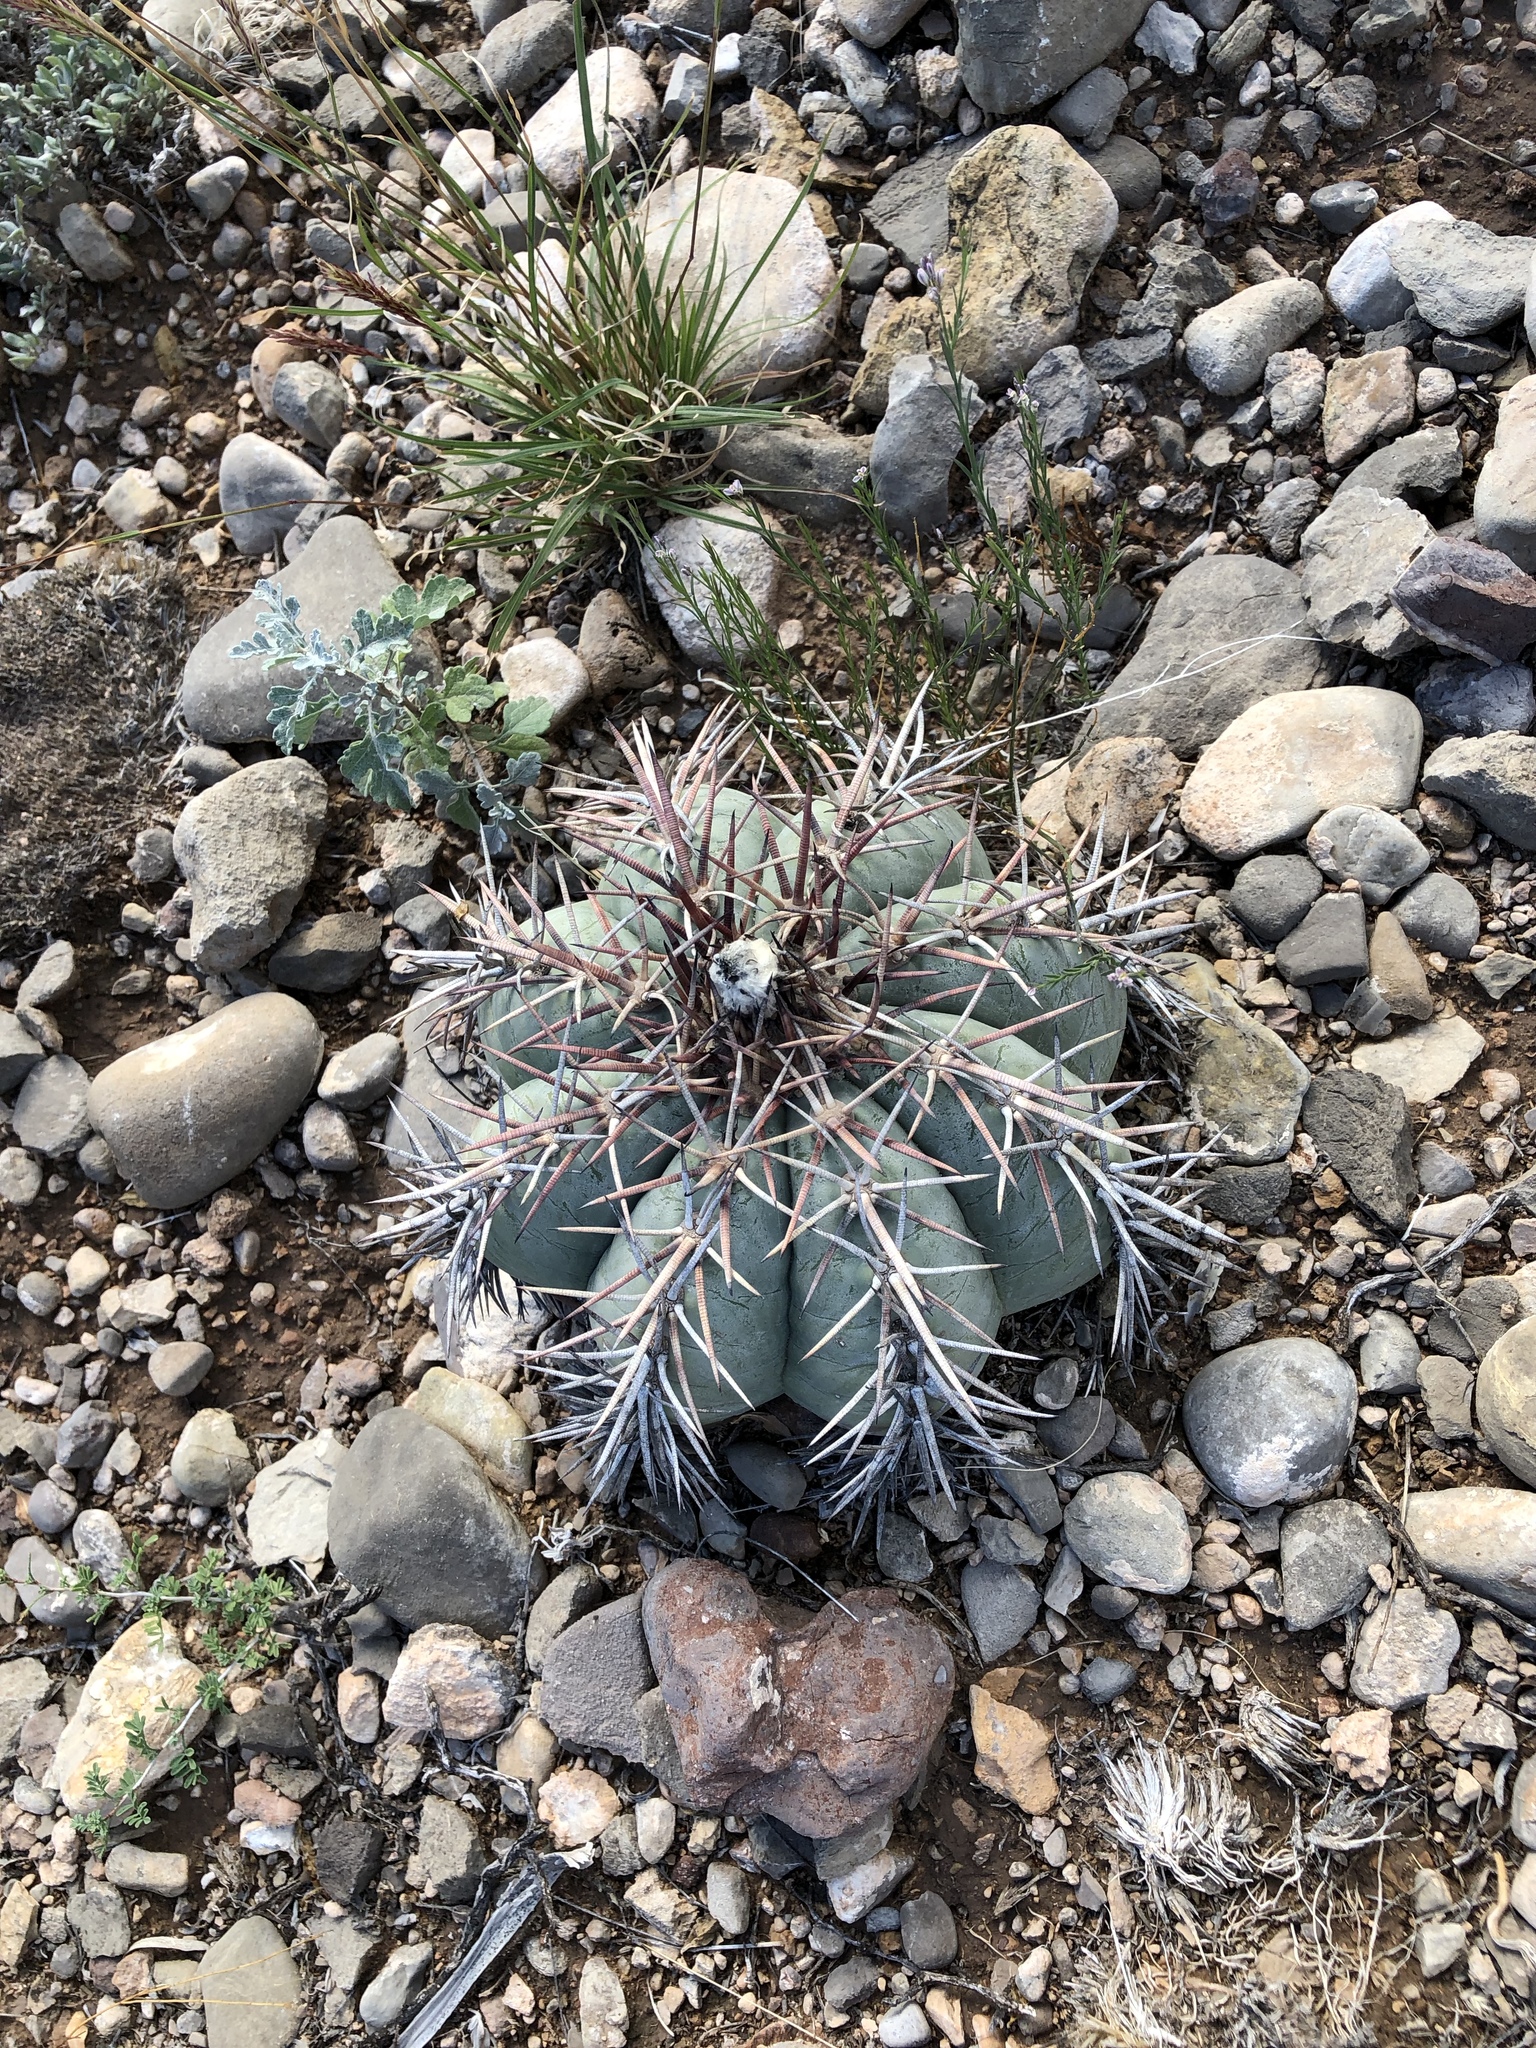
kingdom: Plantae
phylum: Tracheophyta
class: Magnoliopsida
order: Caryophyllales
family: Cactaceae
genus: Echinocactus
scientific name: Echinocactus horizonthalonius
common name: Devilshead
